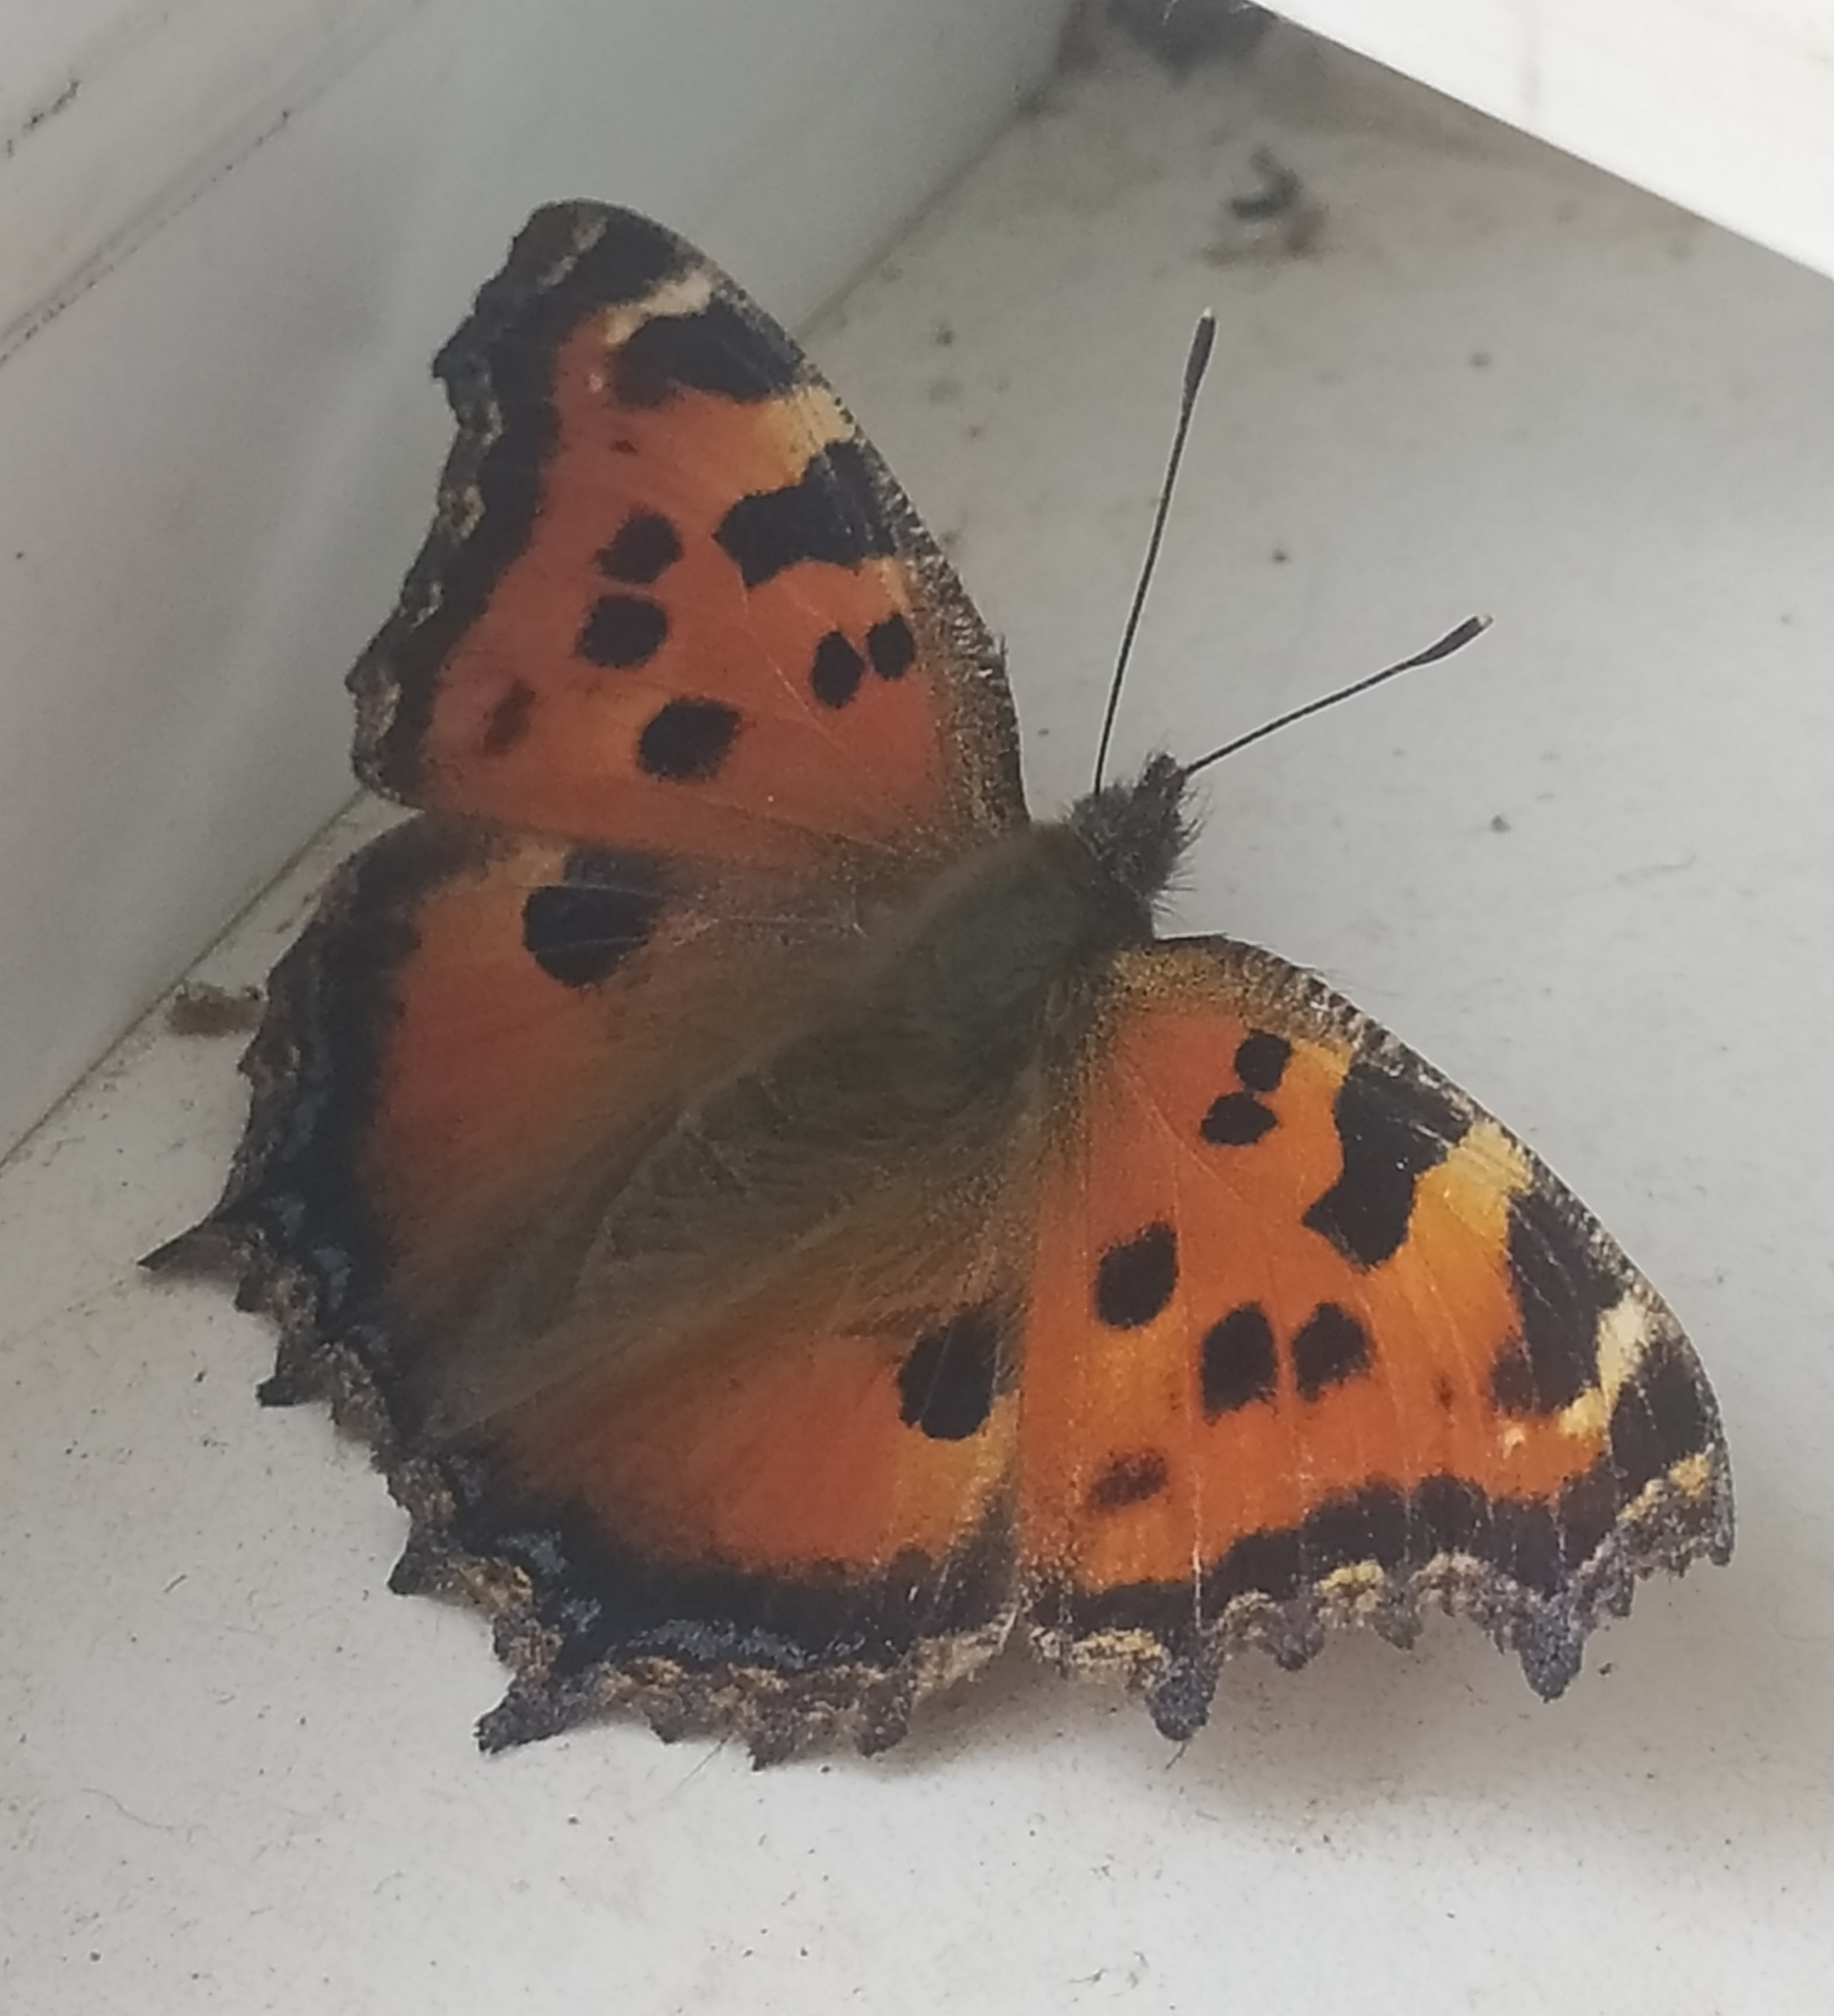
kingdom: Animalia
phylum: Arthropoda
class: Insecta
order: Lepidoptera
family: Nymphalidae
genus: Nymphalis
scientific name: Nymphalis xanthomelas
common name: Scarce tortoiseshell
